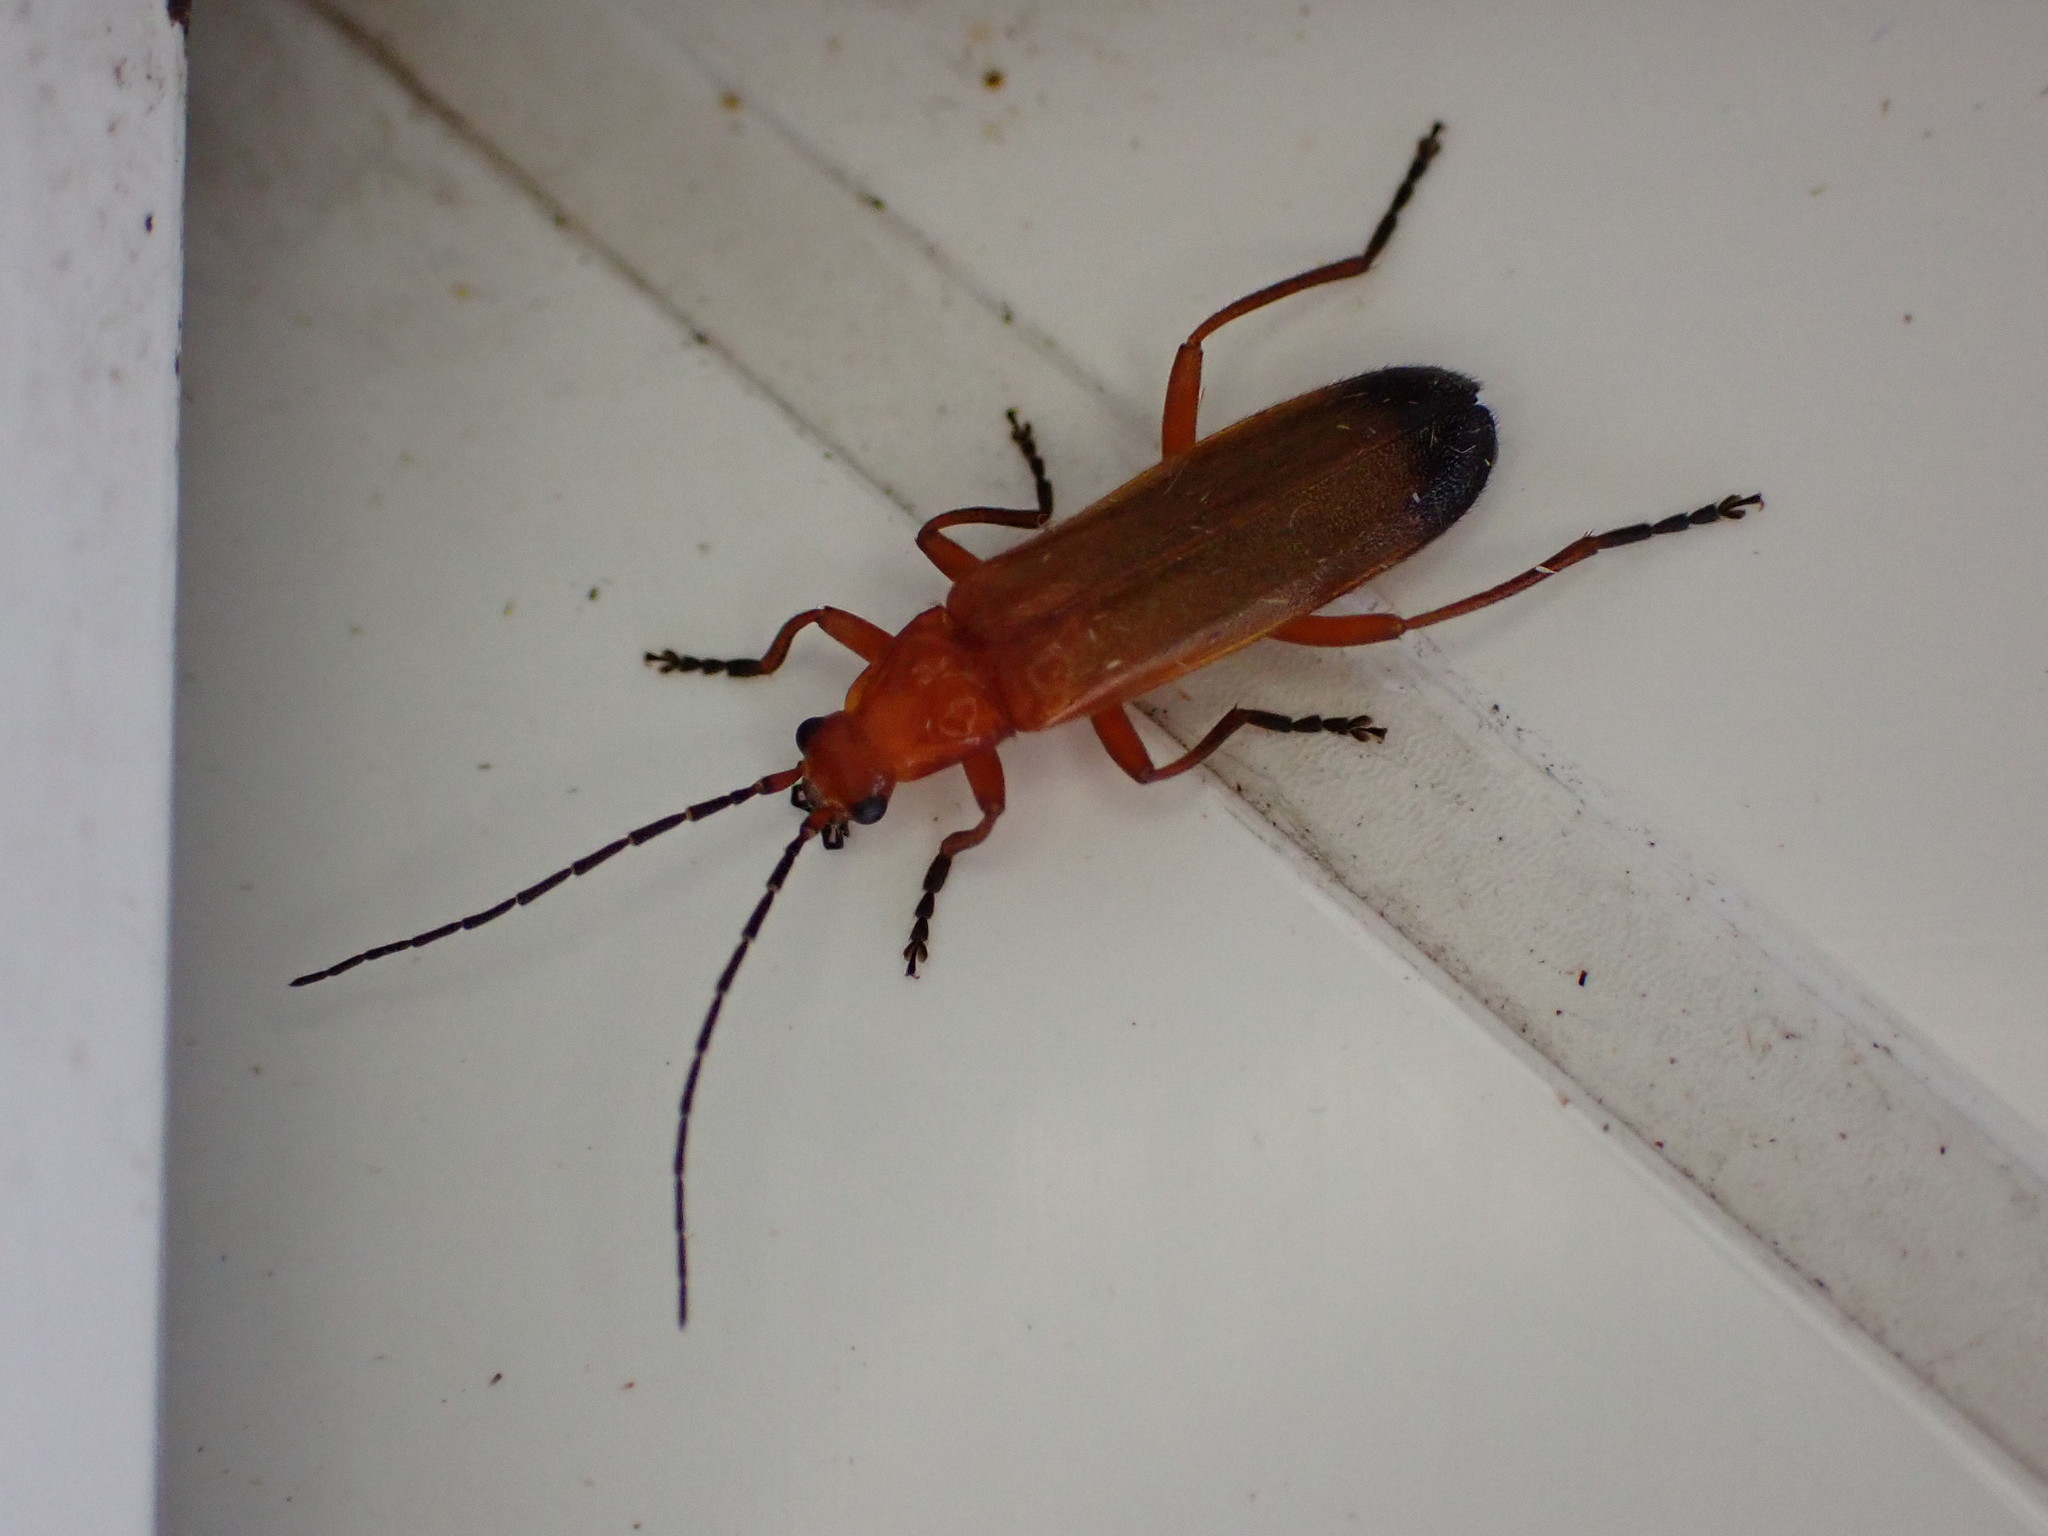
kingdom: Animalia
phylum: Arthropoda
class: Insecta
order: Coleoptera
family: Cantharidae
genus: Rhagonycha
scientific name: Rhagonycha fulva
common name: Common red soldier beetle
